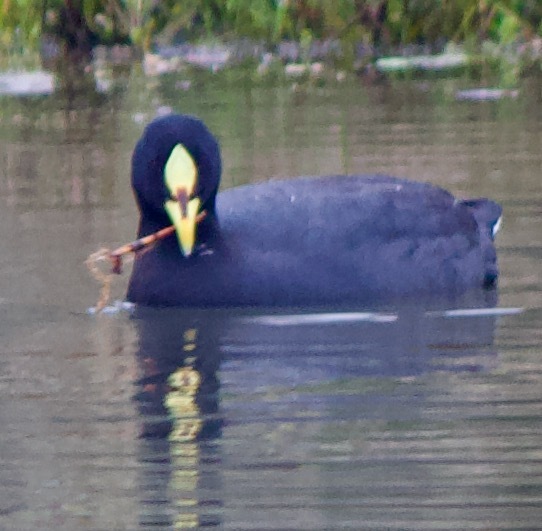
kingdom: Animalia
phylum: Chordata
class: Aves
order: Gruiformes
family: Rallidae
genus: Fulica
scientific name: Fulica armillata
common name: Red-gartered coot
